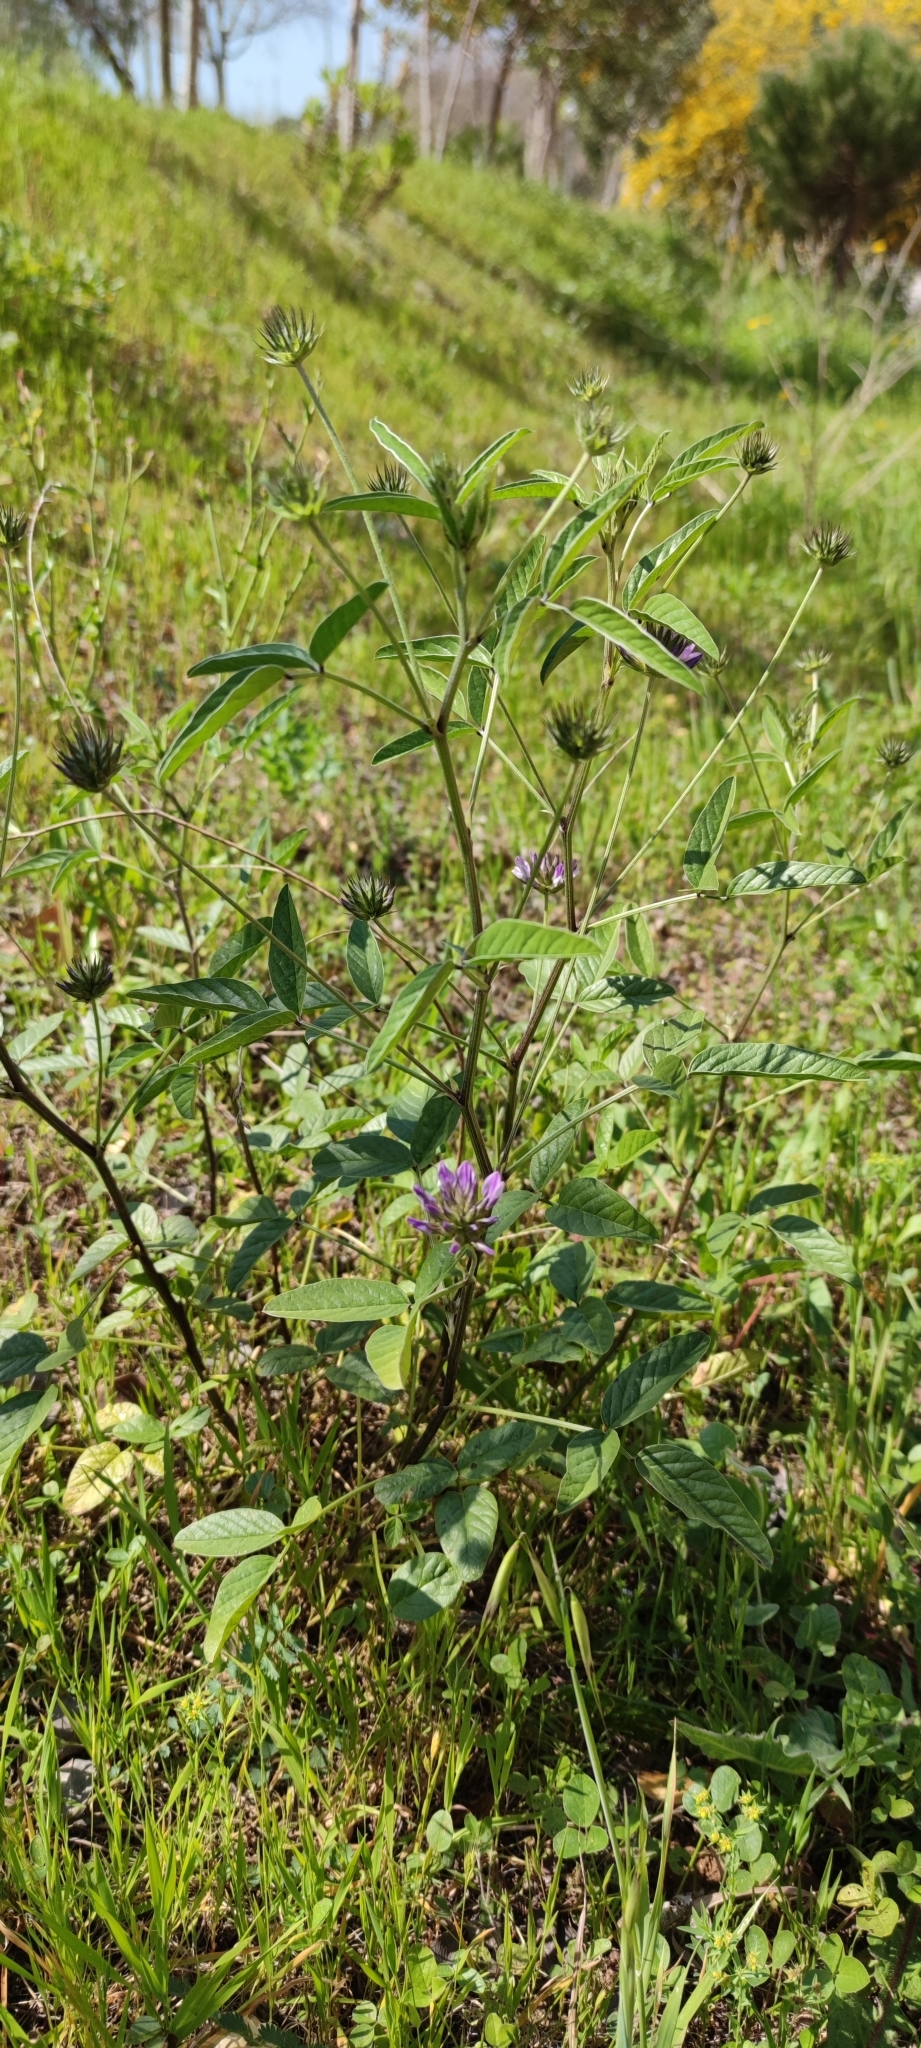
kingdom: Plantae
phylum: Tracheophyta
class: Magnoliopsida
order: Fabales
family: Fabaceae
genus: Bituminaria
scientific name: Bituminaria bituminosa
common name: Arabian pea
